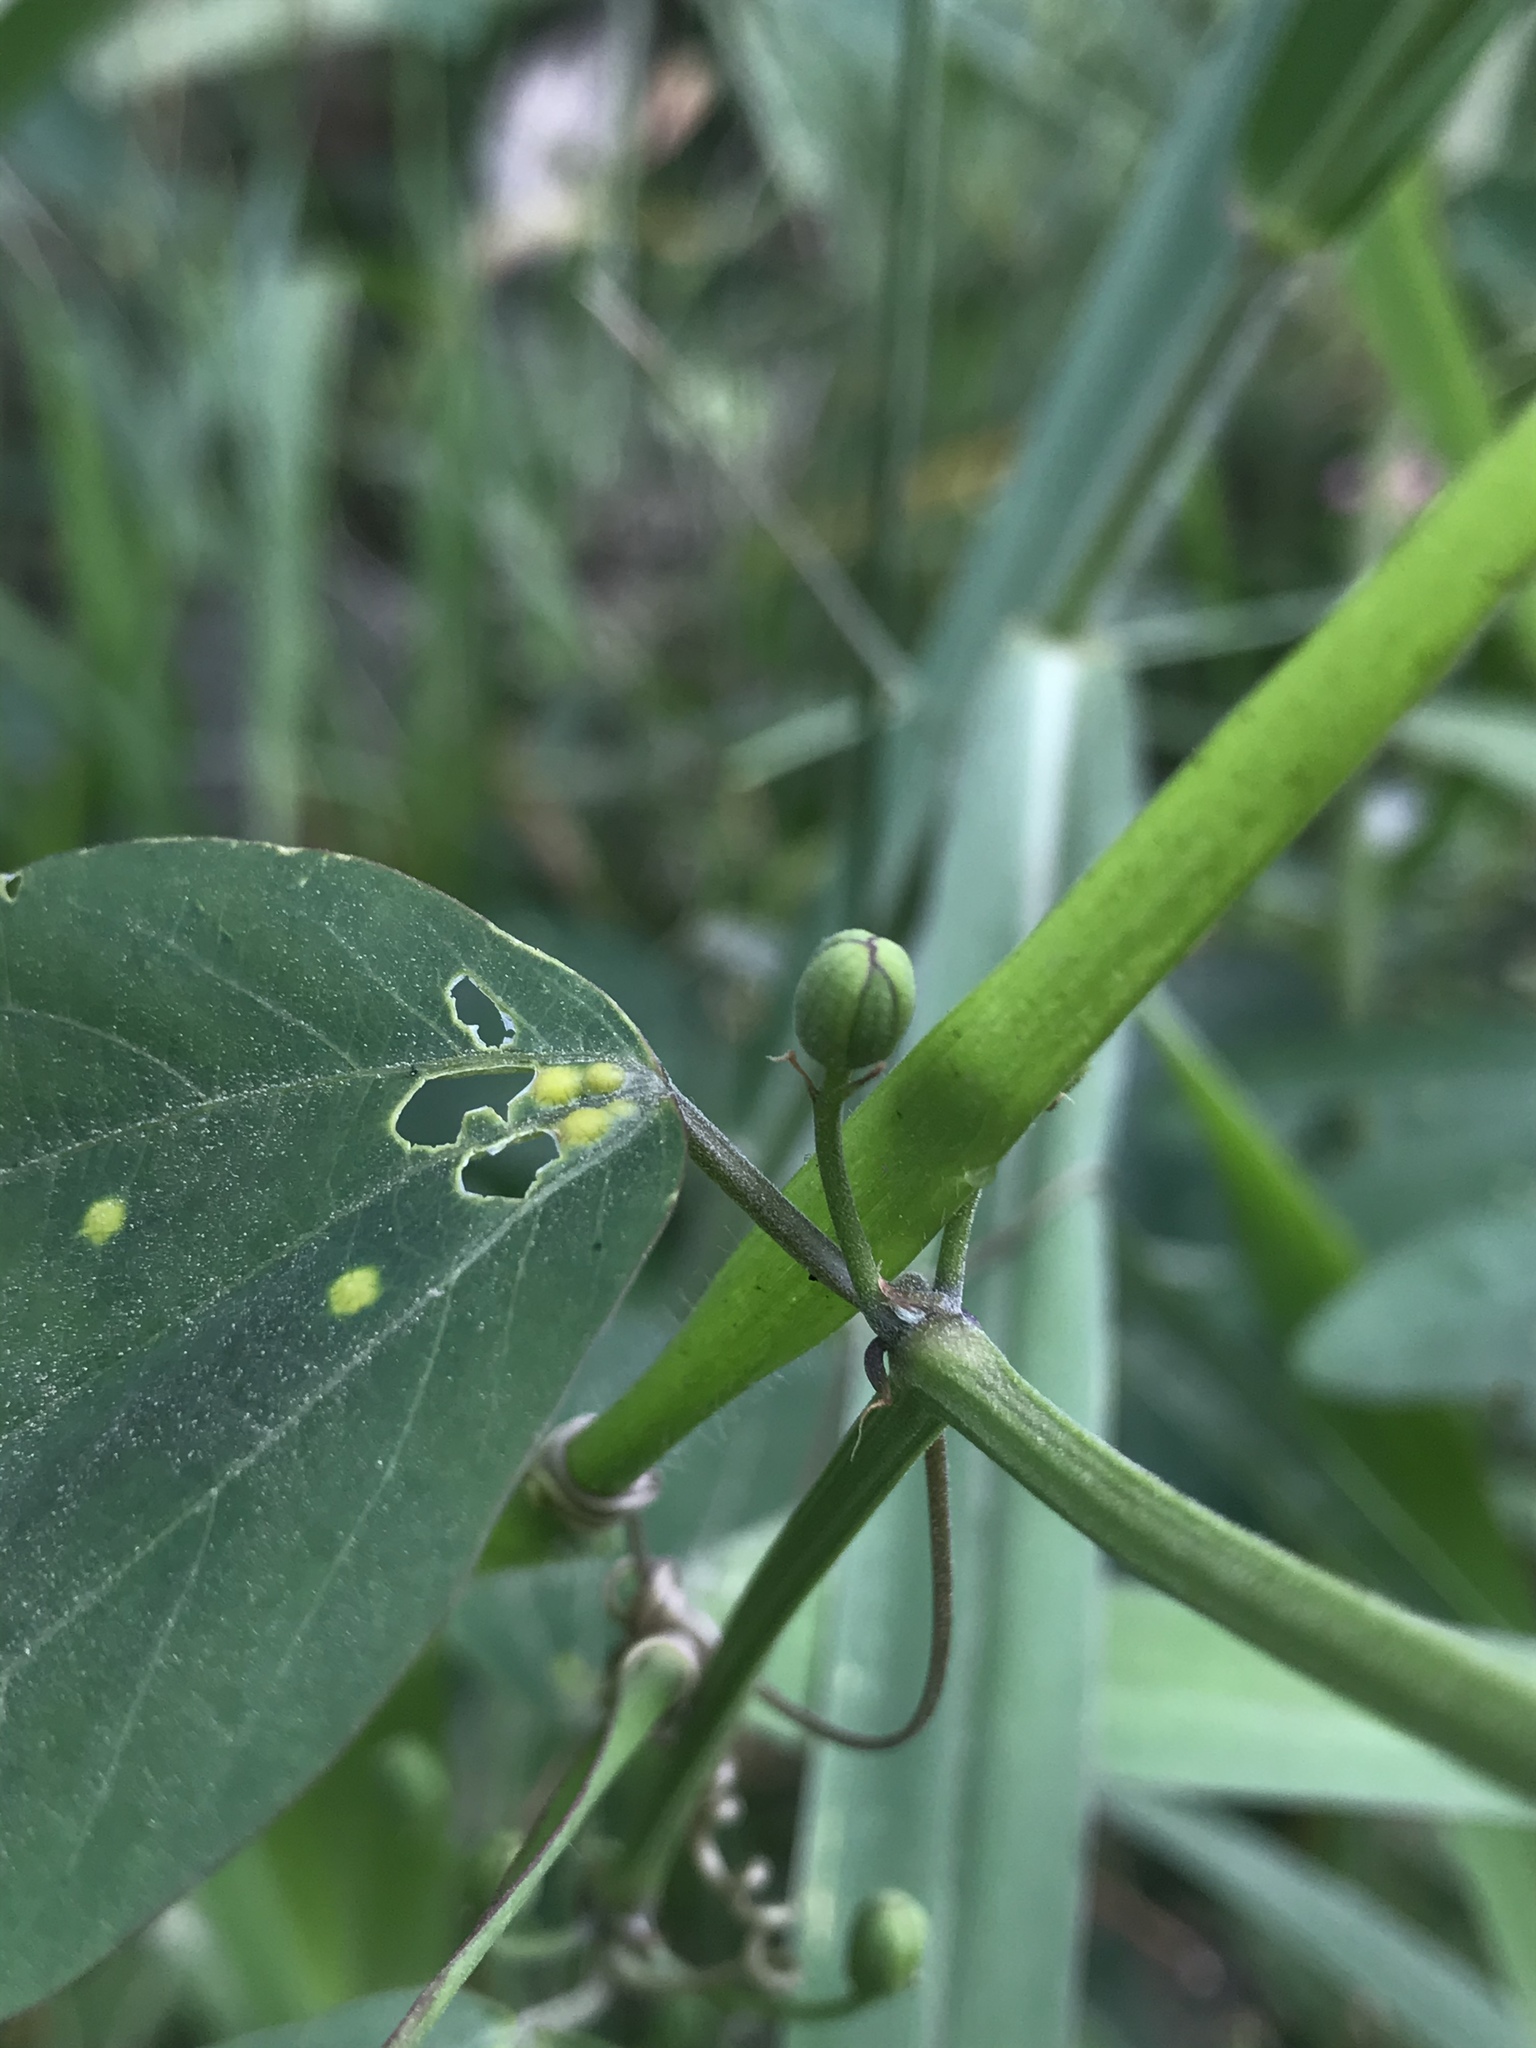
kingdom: Plantae
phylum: Tracheophyta
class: Magnoliopsida
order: Malpighiales
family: Passifloraceae
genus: Passiflora
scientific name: Passiflora cuneata
